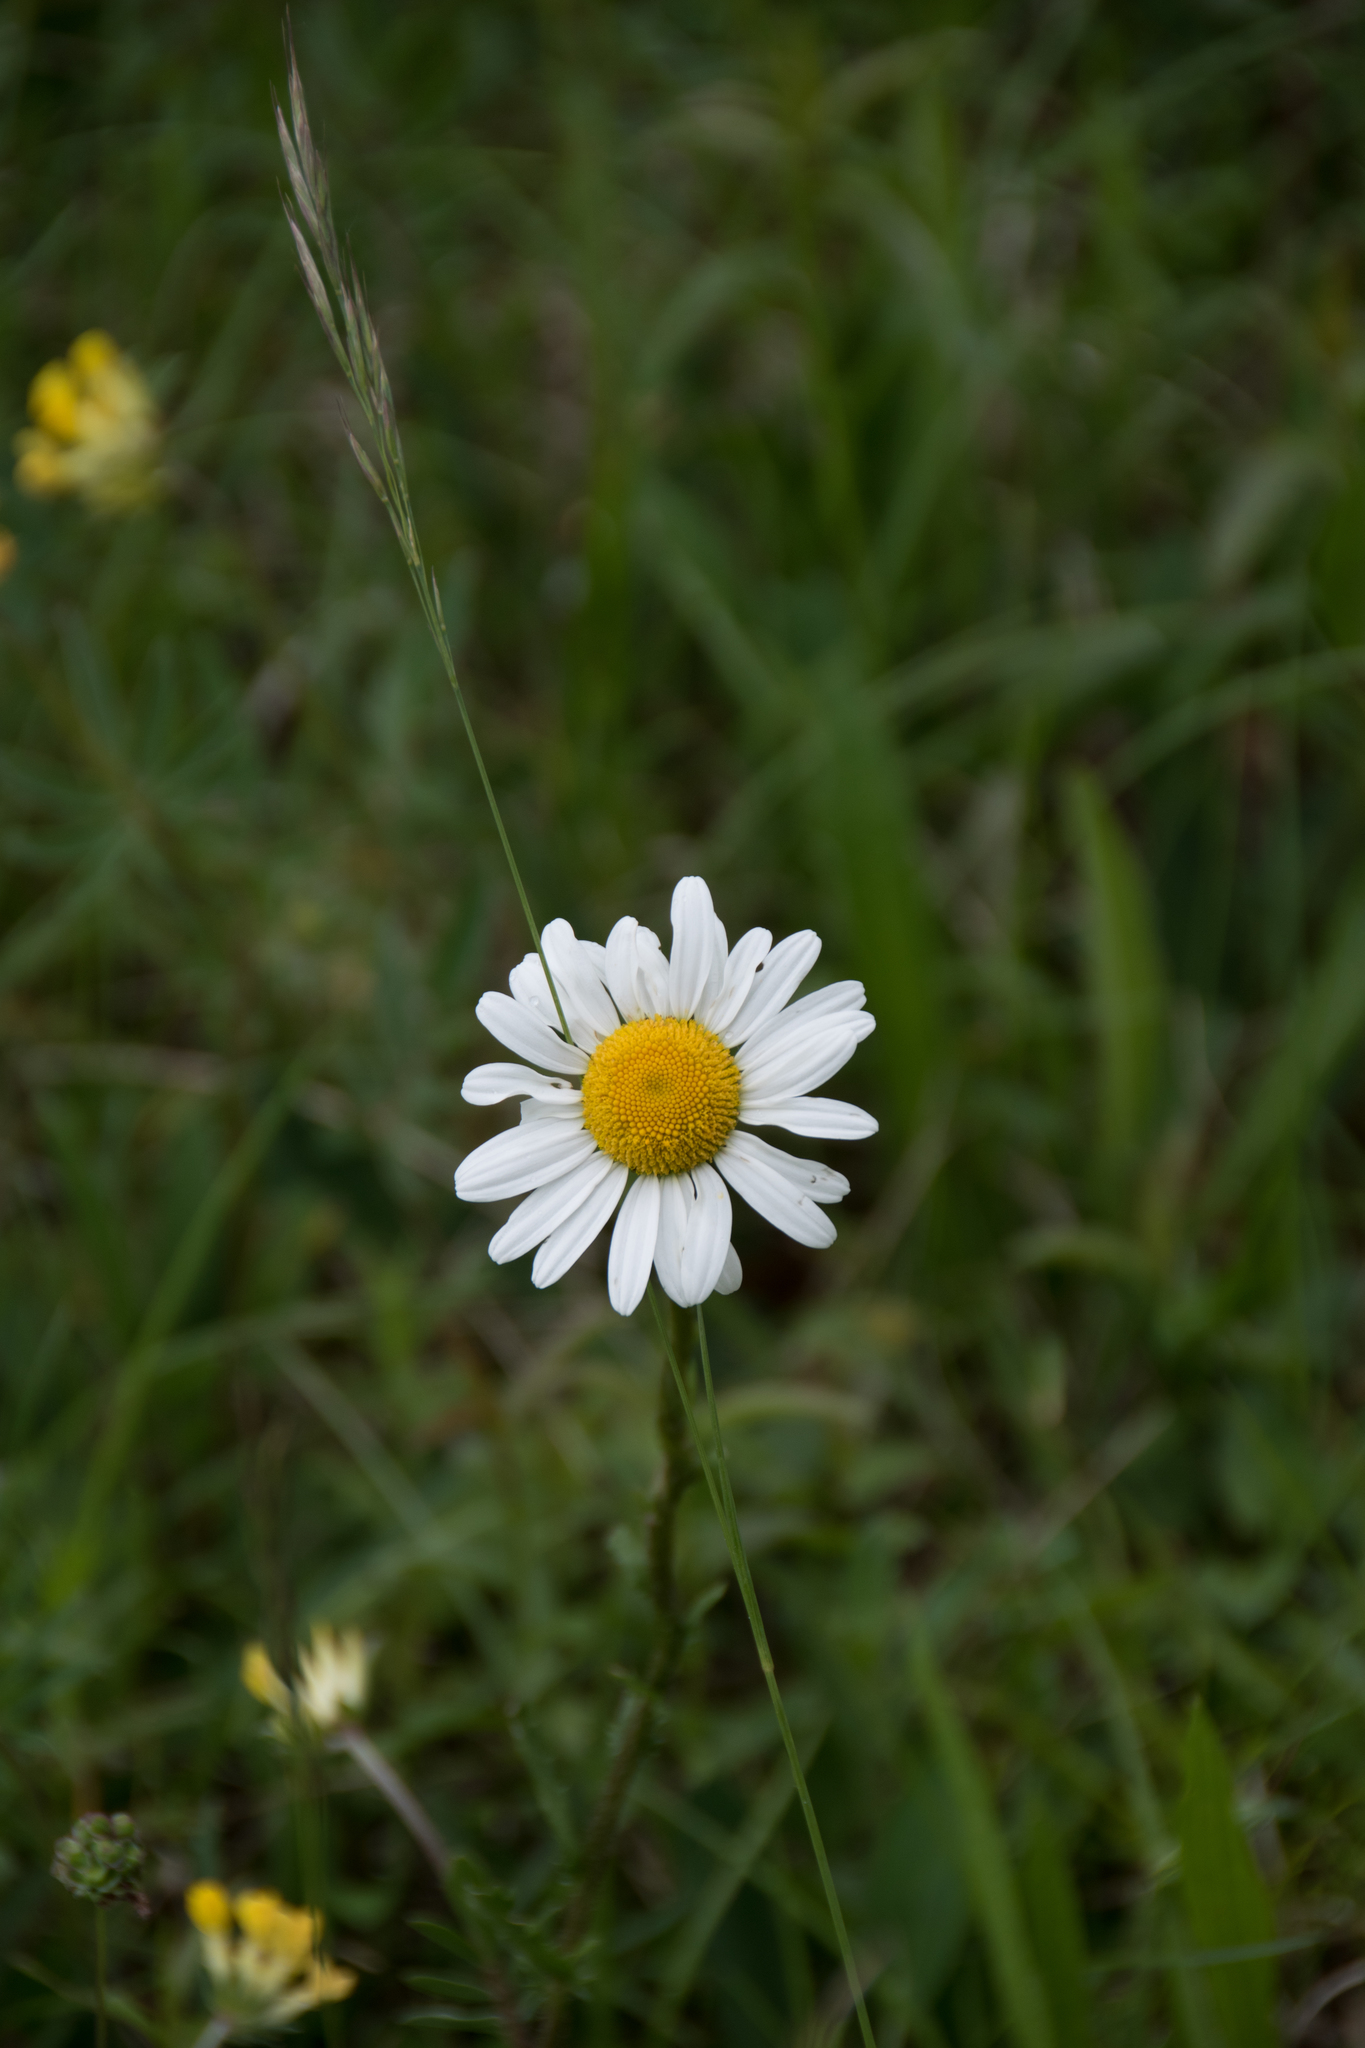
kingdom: Plantae
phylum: Tracheophyta
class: Magnoliopsida
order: Asterales
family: Asteraceae
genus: Leucanthemum
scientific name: Leucanthemum vulgare
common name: Oxeye daisy
